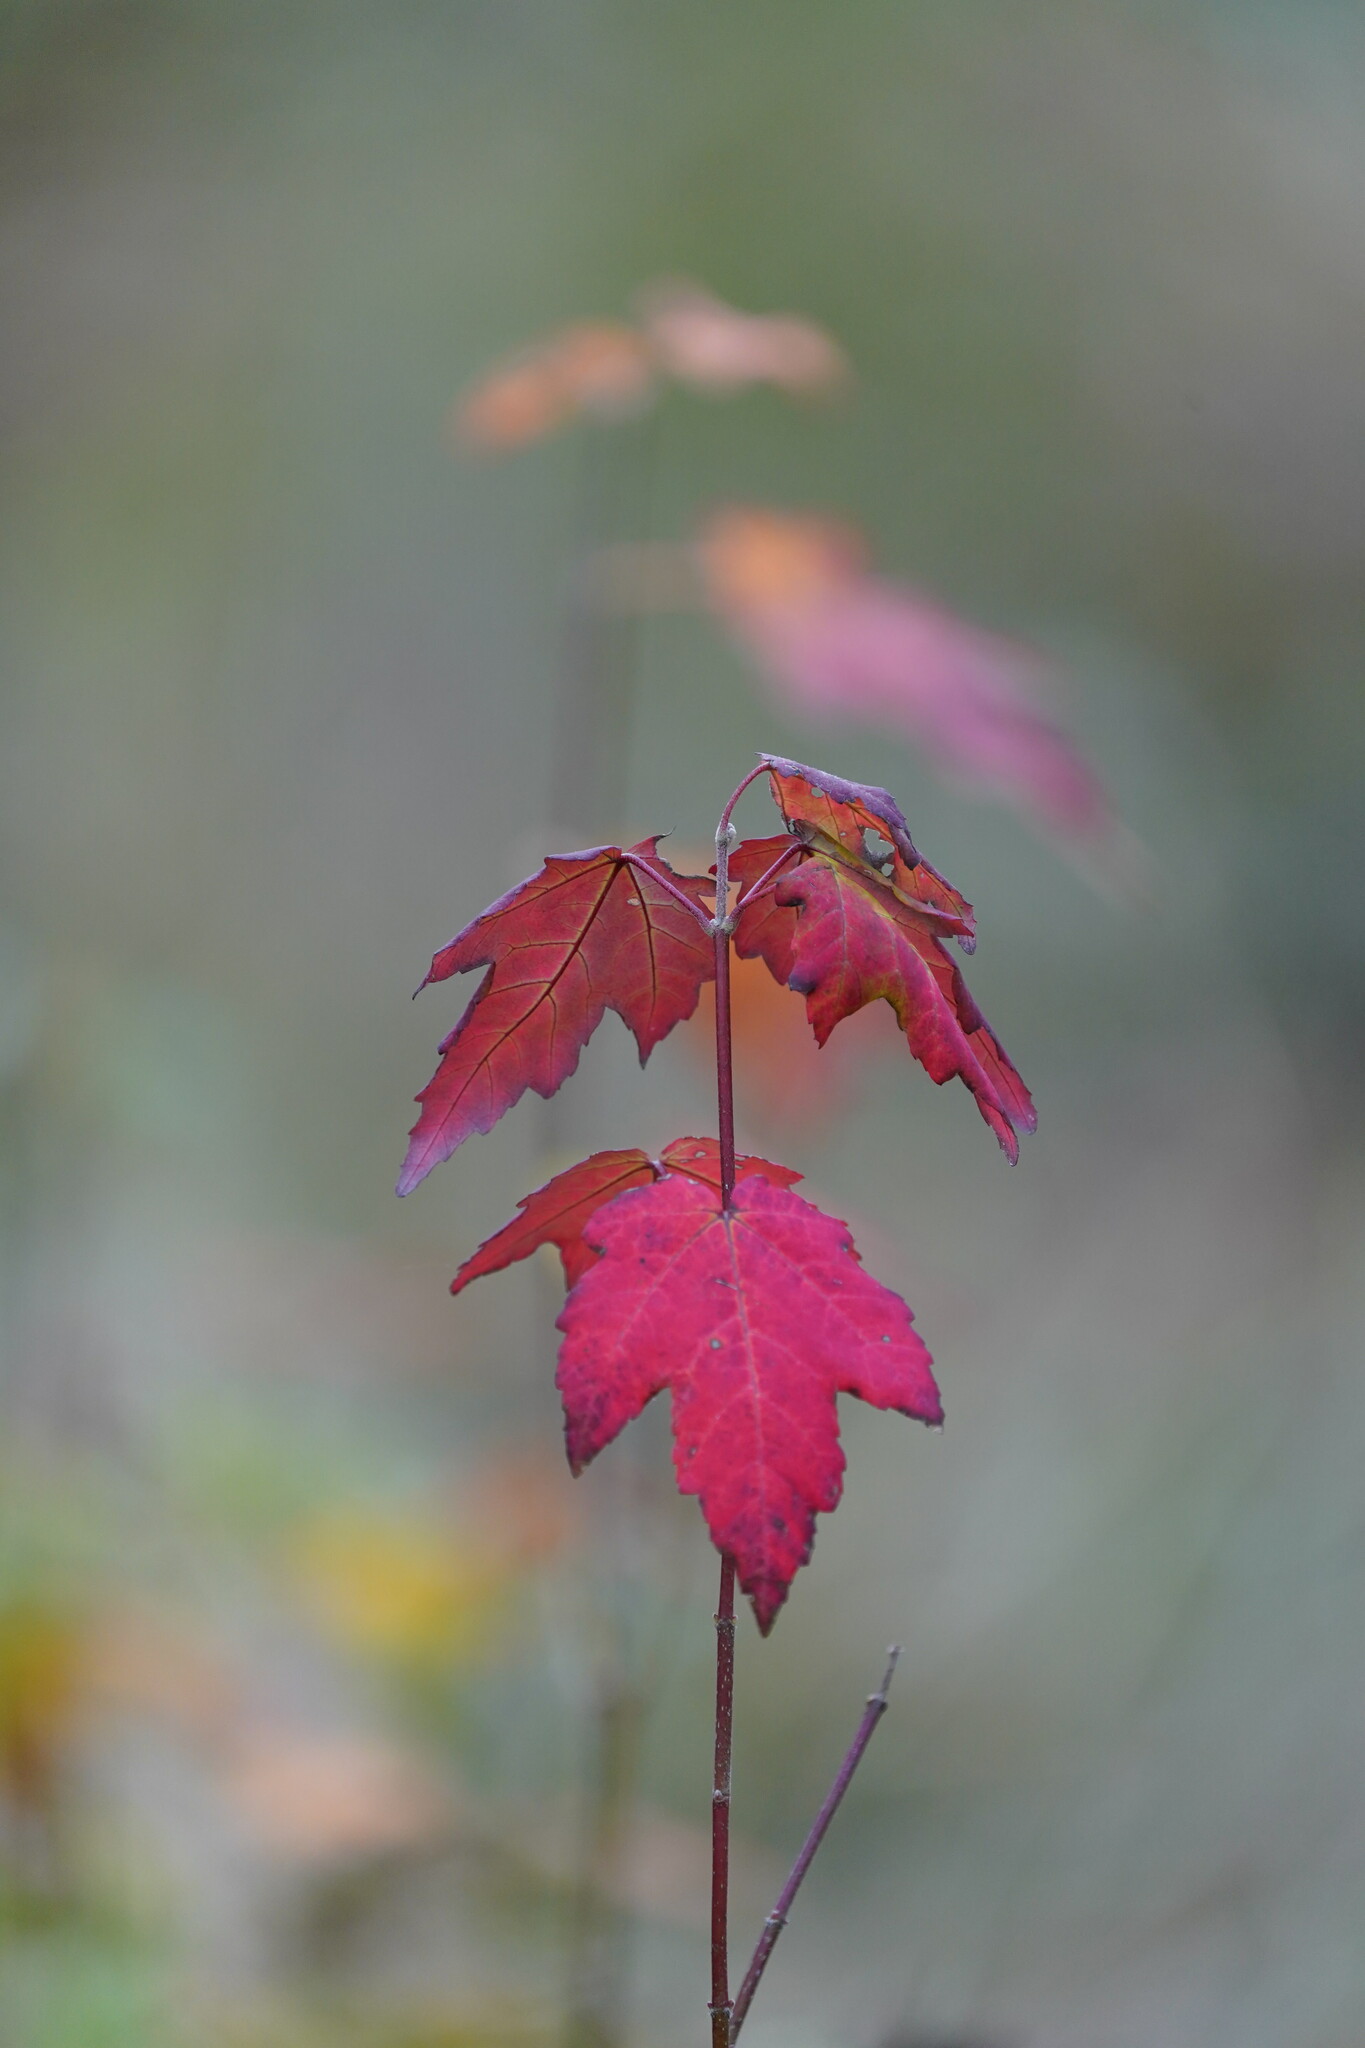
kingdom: Plantae
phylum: Tracheophyta
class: Magnoliopsida
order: Sapindales
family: Sapindaceae
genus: Acer
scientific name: Acer rubrum
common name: Red maple
